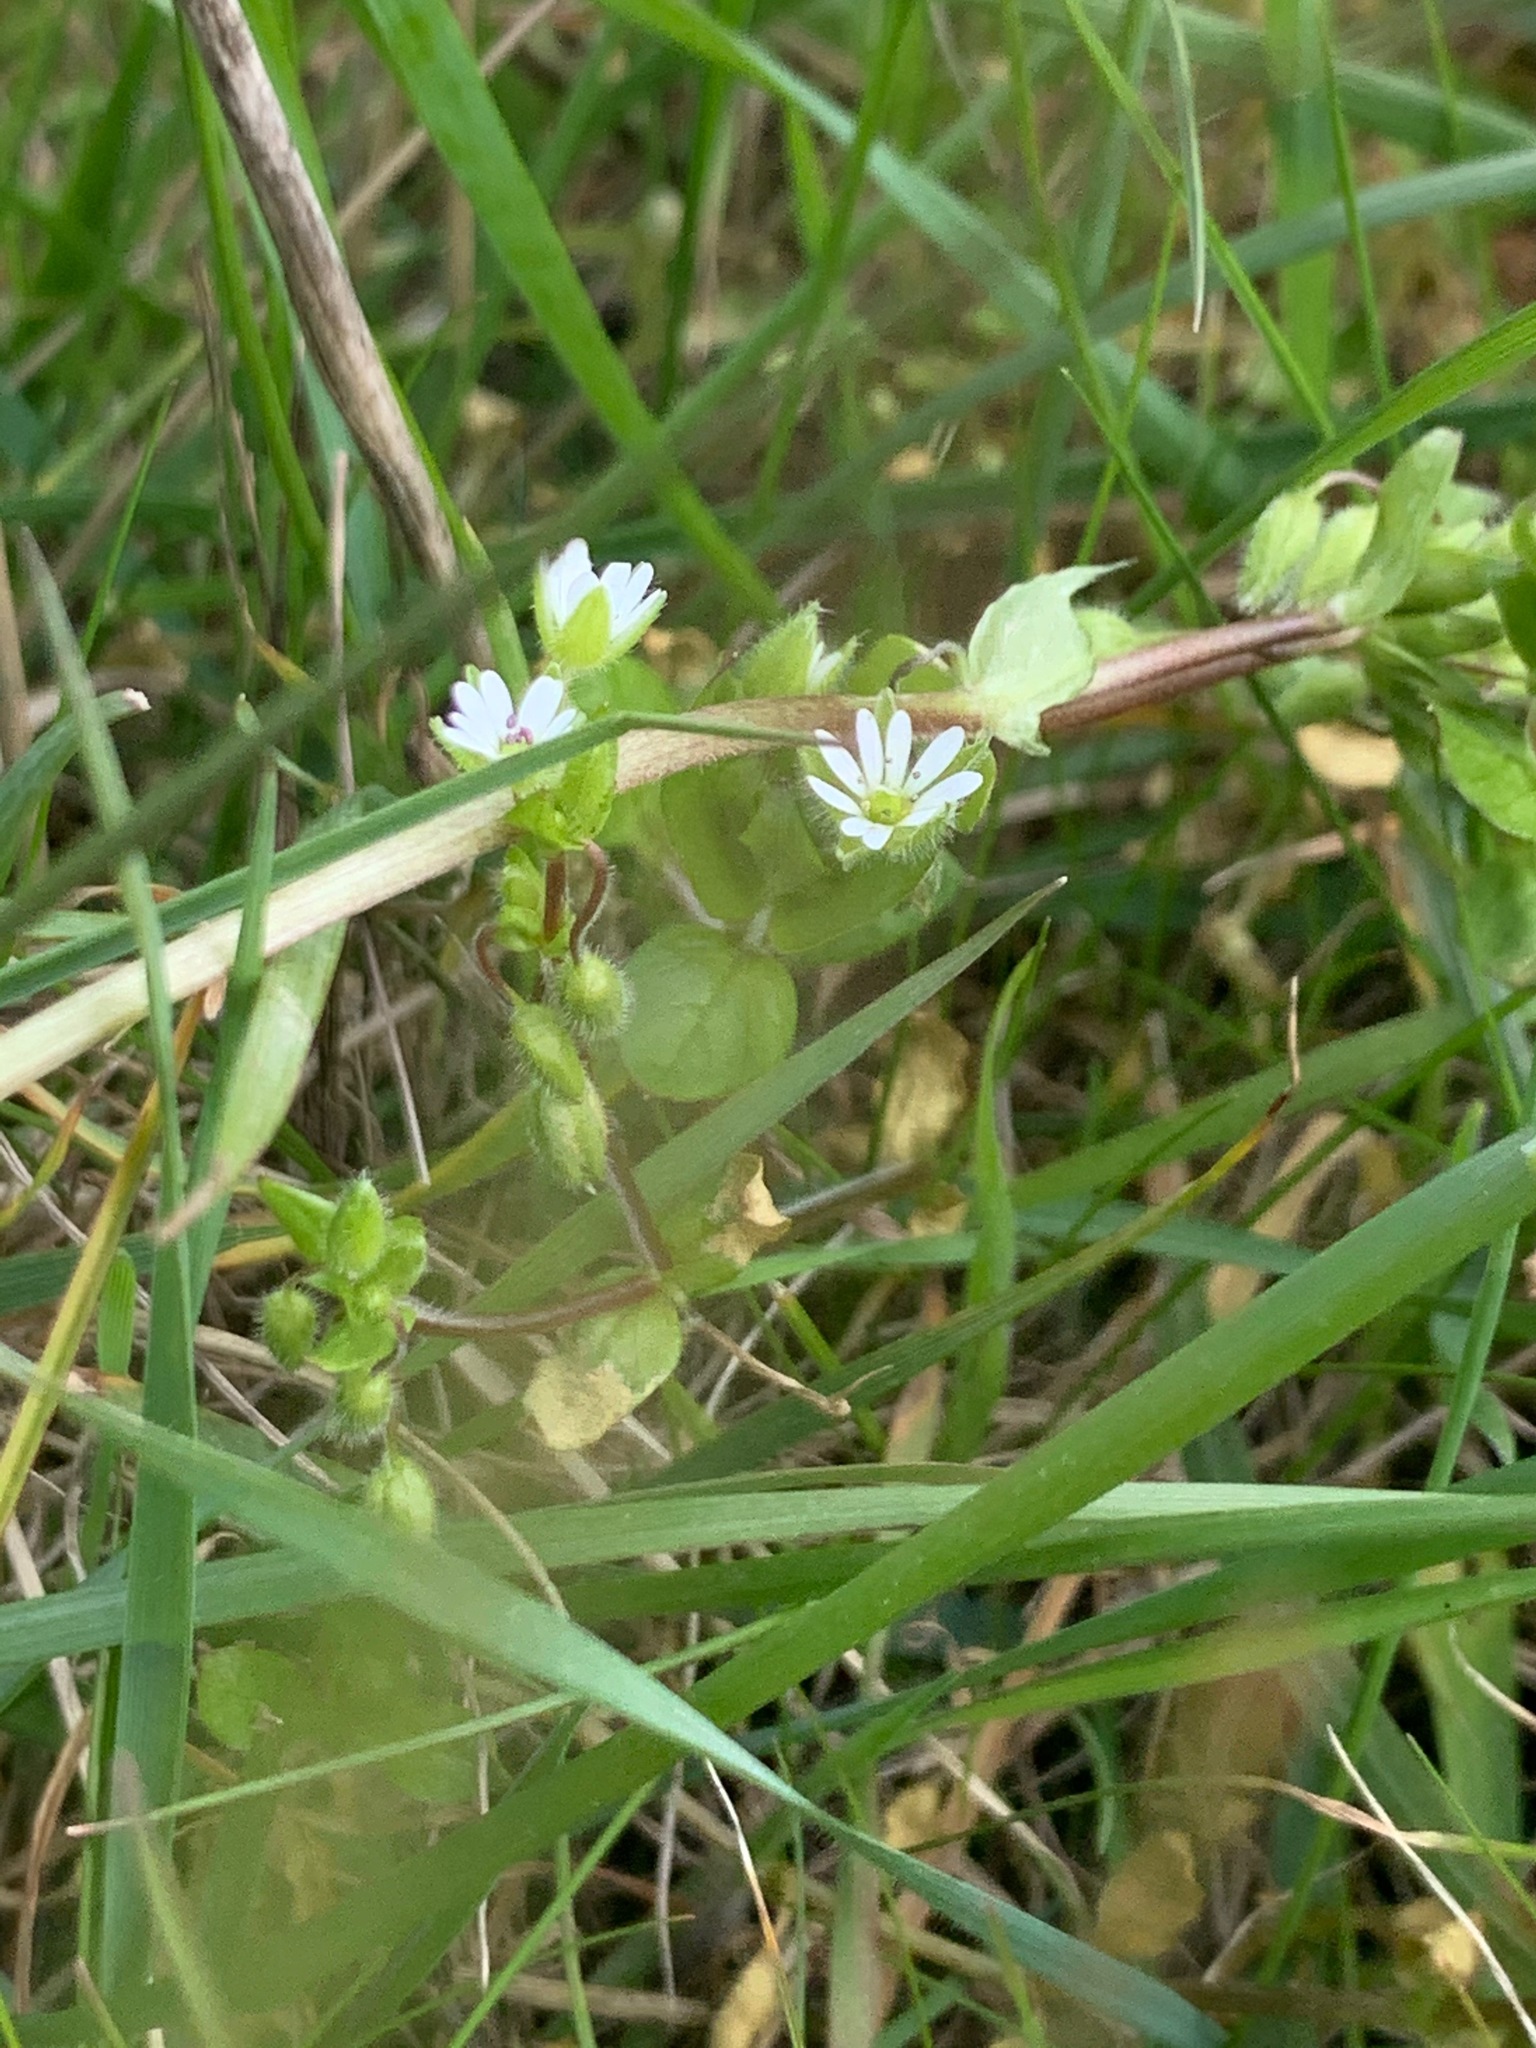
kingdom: Plantae
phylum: Tracheophyta
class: Magnoliopsida
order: Caryophyllales
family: Caryophyllaceae
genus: Stellaria
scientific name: Stellaria media
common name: Common chickweed
